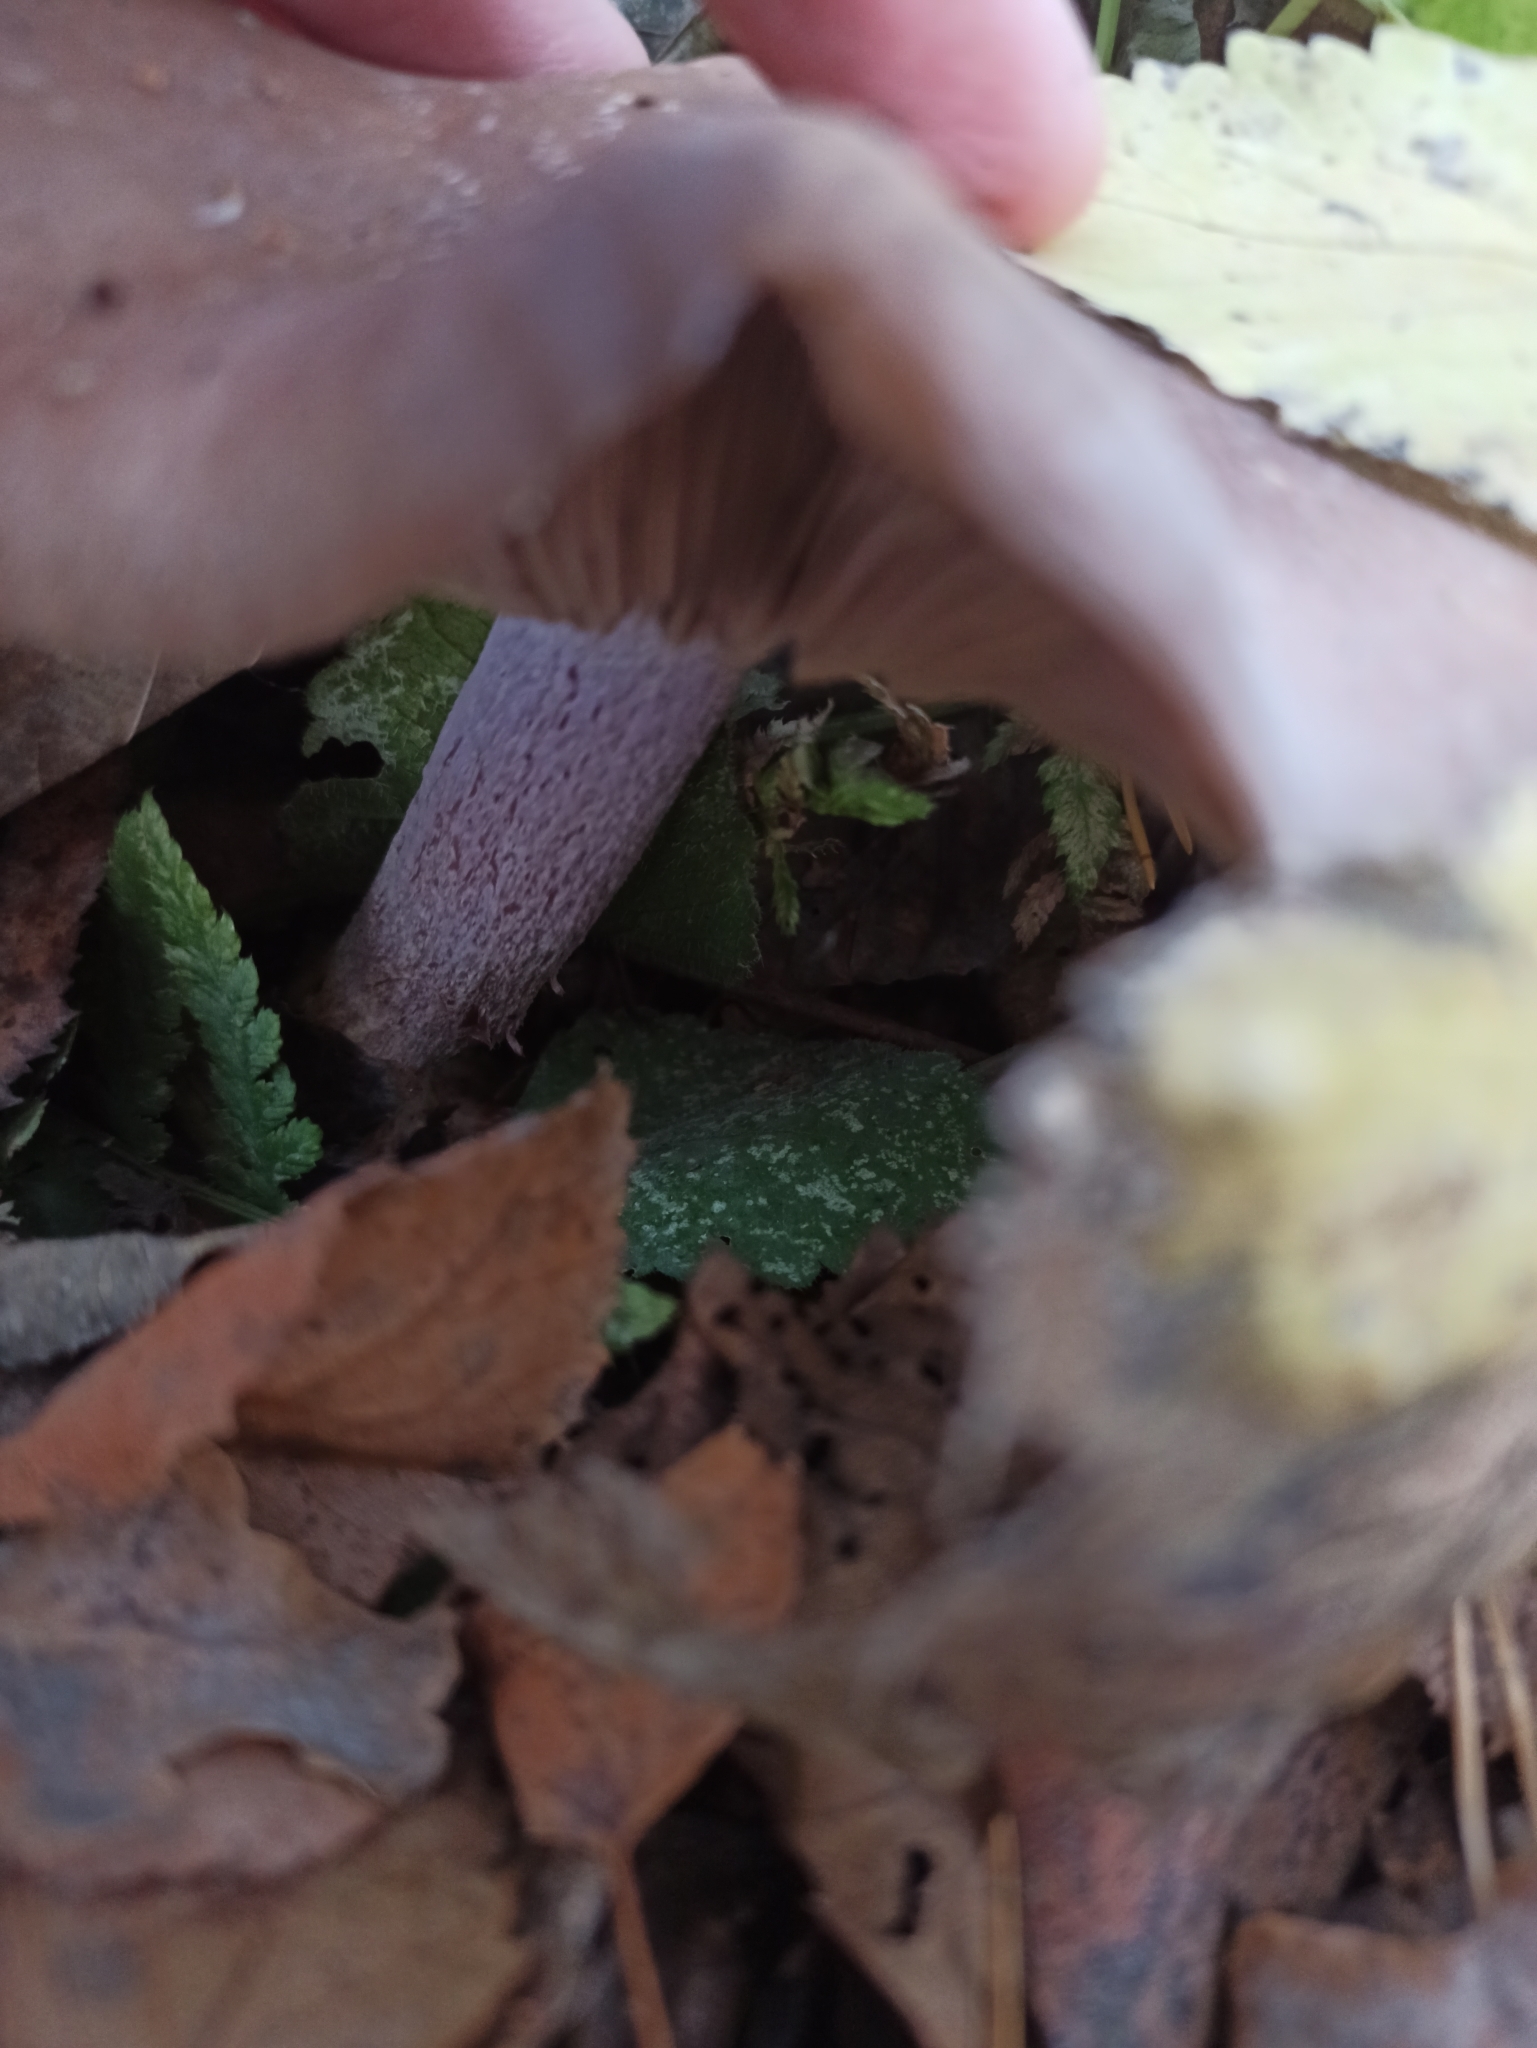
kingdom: Fungi
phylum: Basidiomycota
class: Agaricomycetes
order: Agaricales
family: Tricholomataceae
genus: Collybia
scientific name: Collybia
